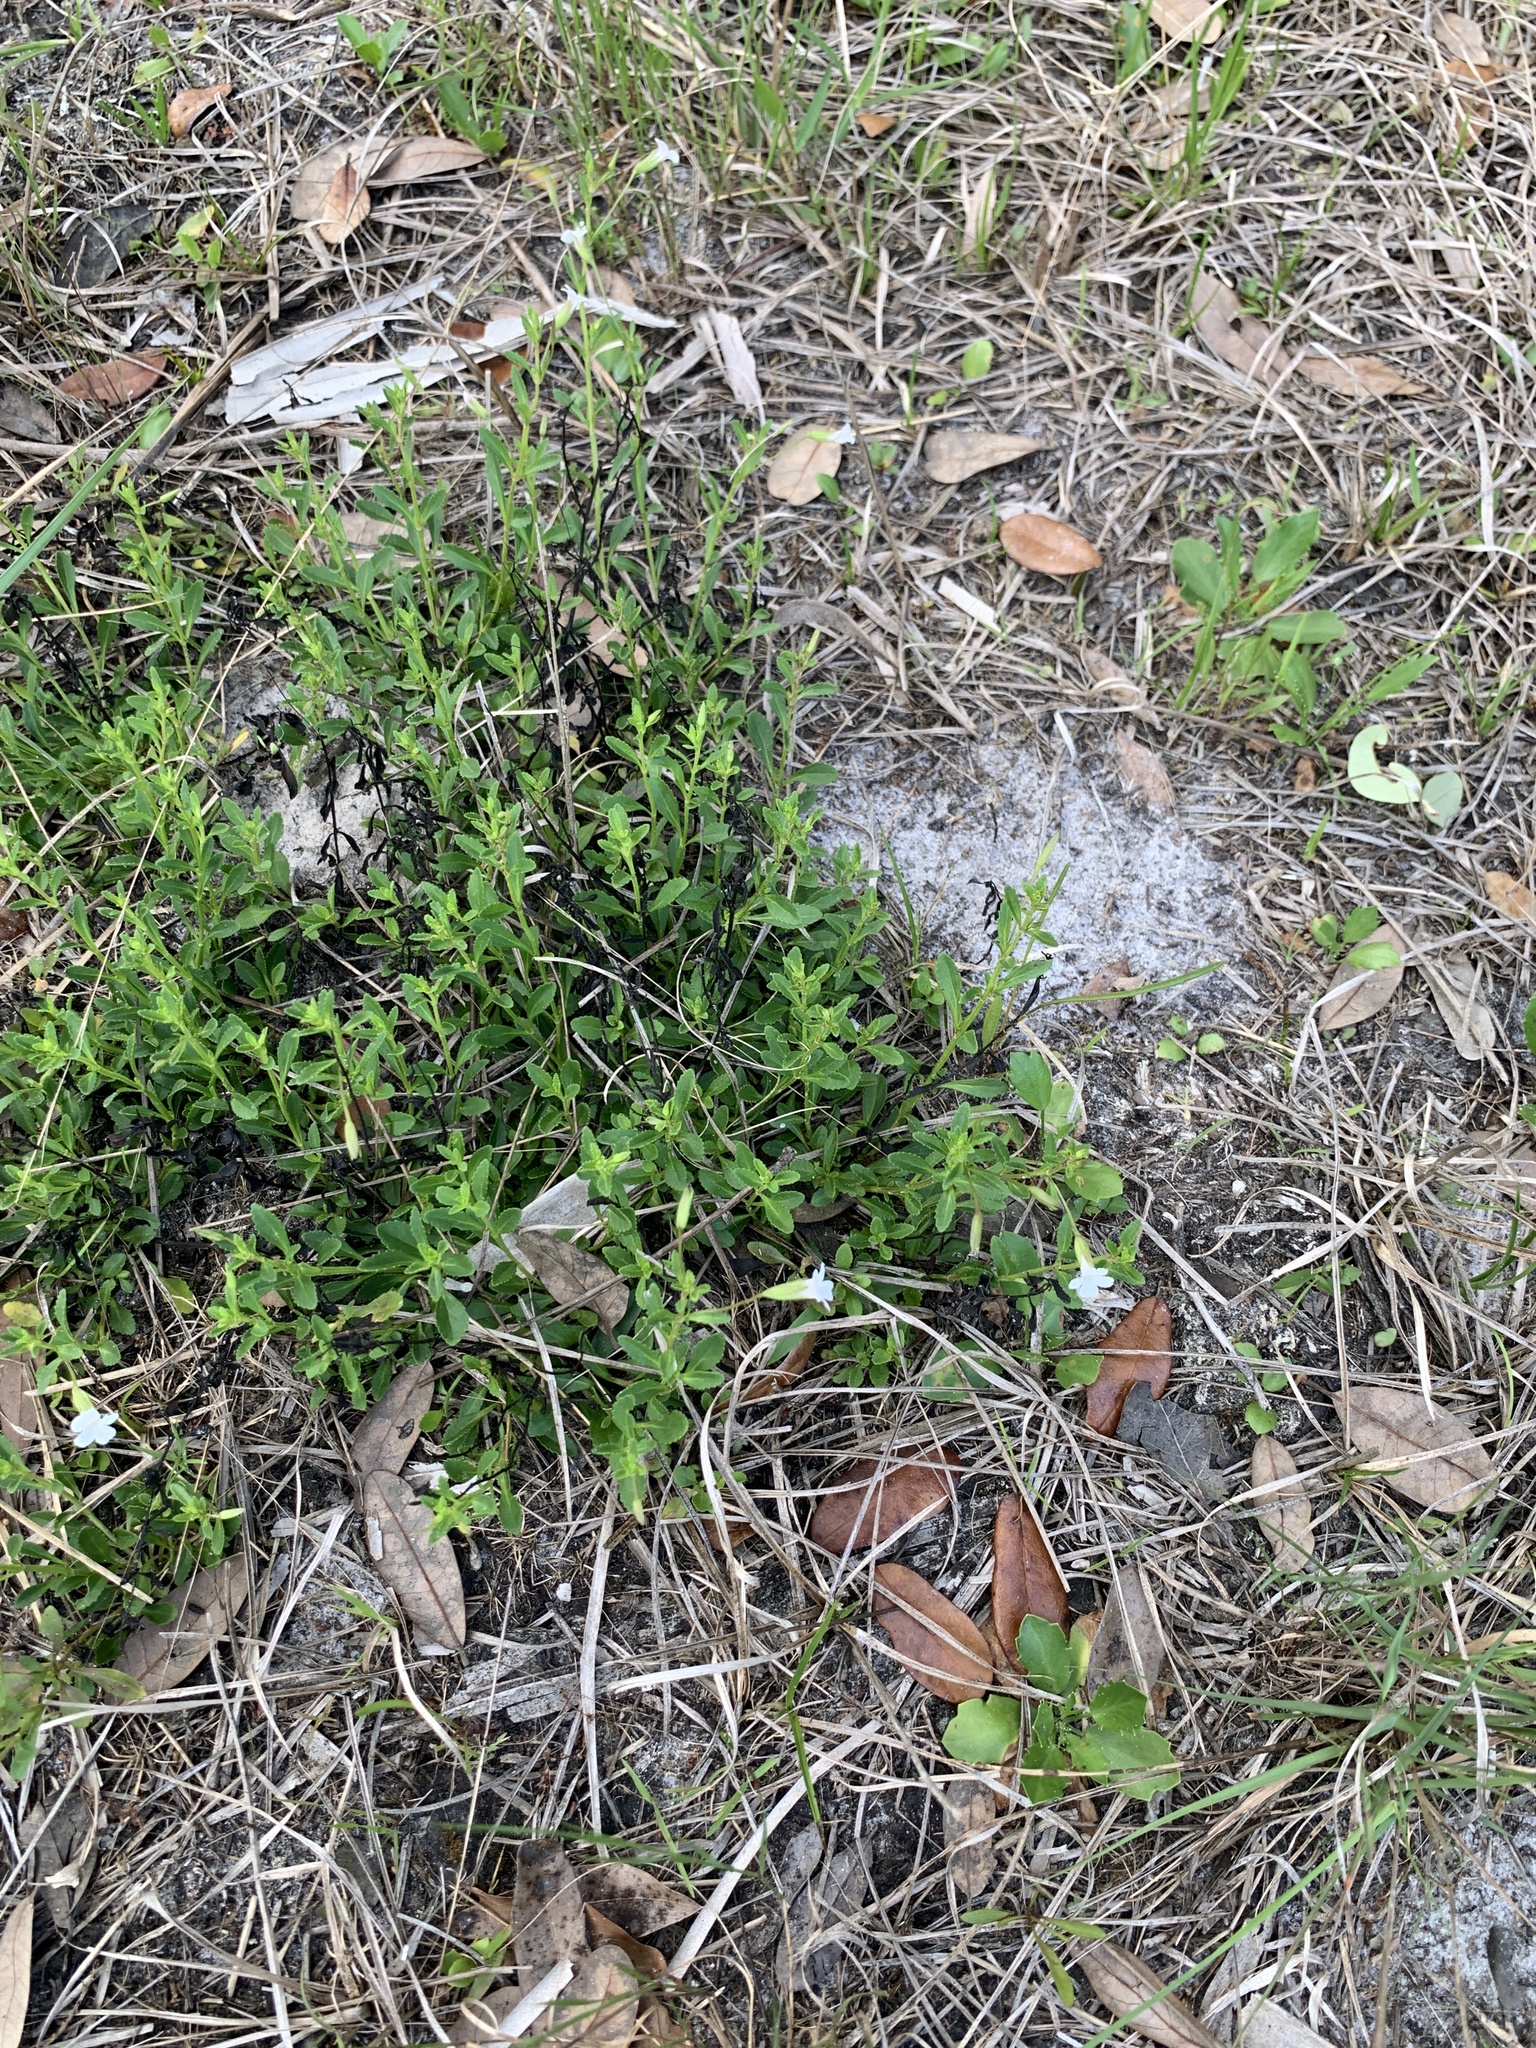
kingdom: Plantae
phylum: Tracheophyta
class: Magnoliopsida
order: Lamiales
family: Plantaginaceae
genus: Mecardonia
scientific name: Mecardonia acuminata
